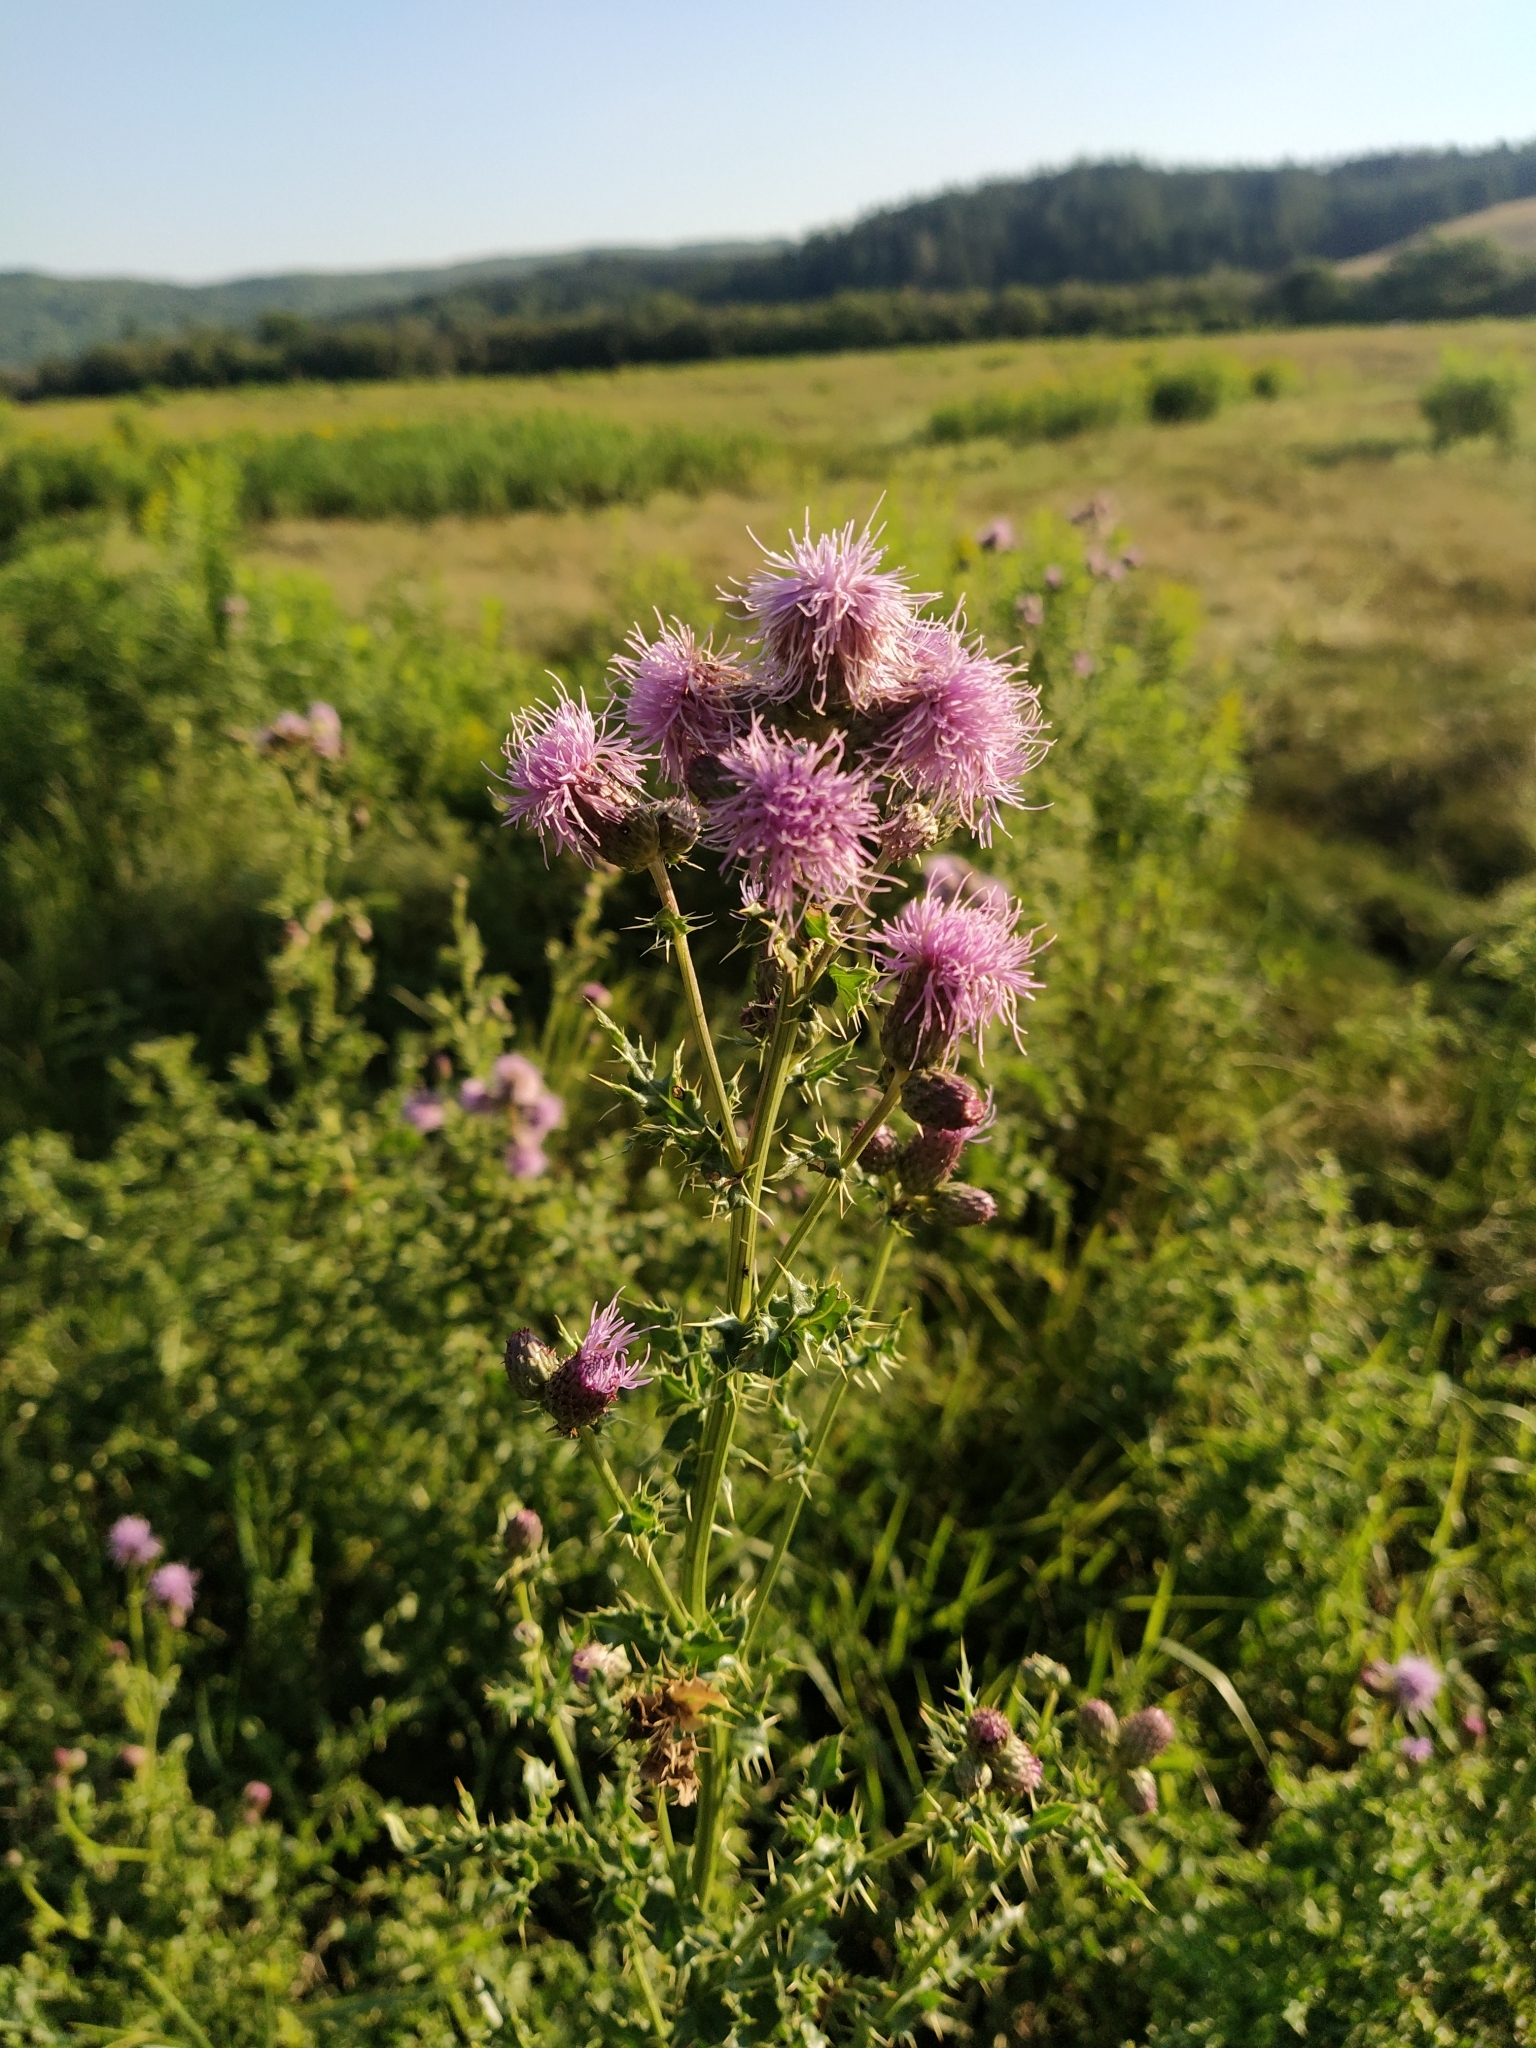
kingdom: Plantae
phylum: Tracheophyta
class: Magnoliopsida
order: Asterales
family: Asteraceae
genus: Cirsium
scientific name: Cirsium arvense
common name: Creeping thistle
